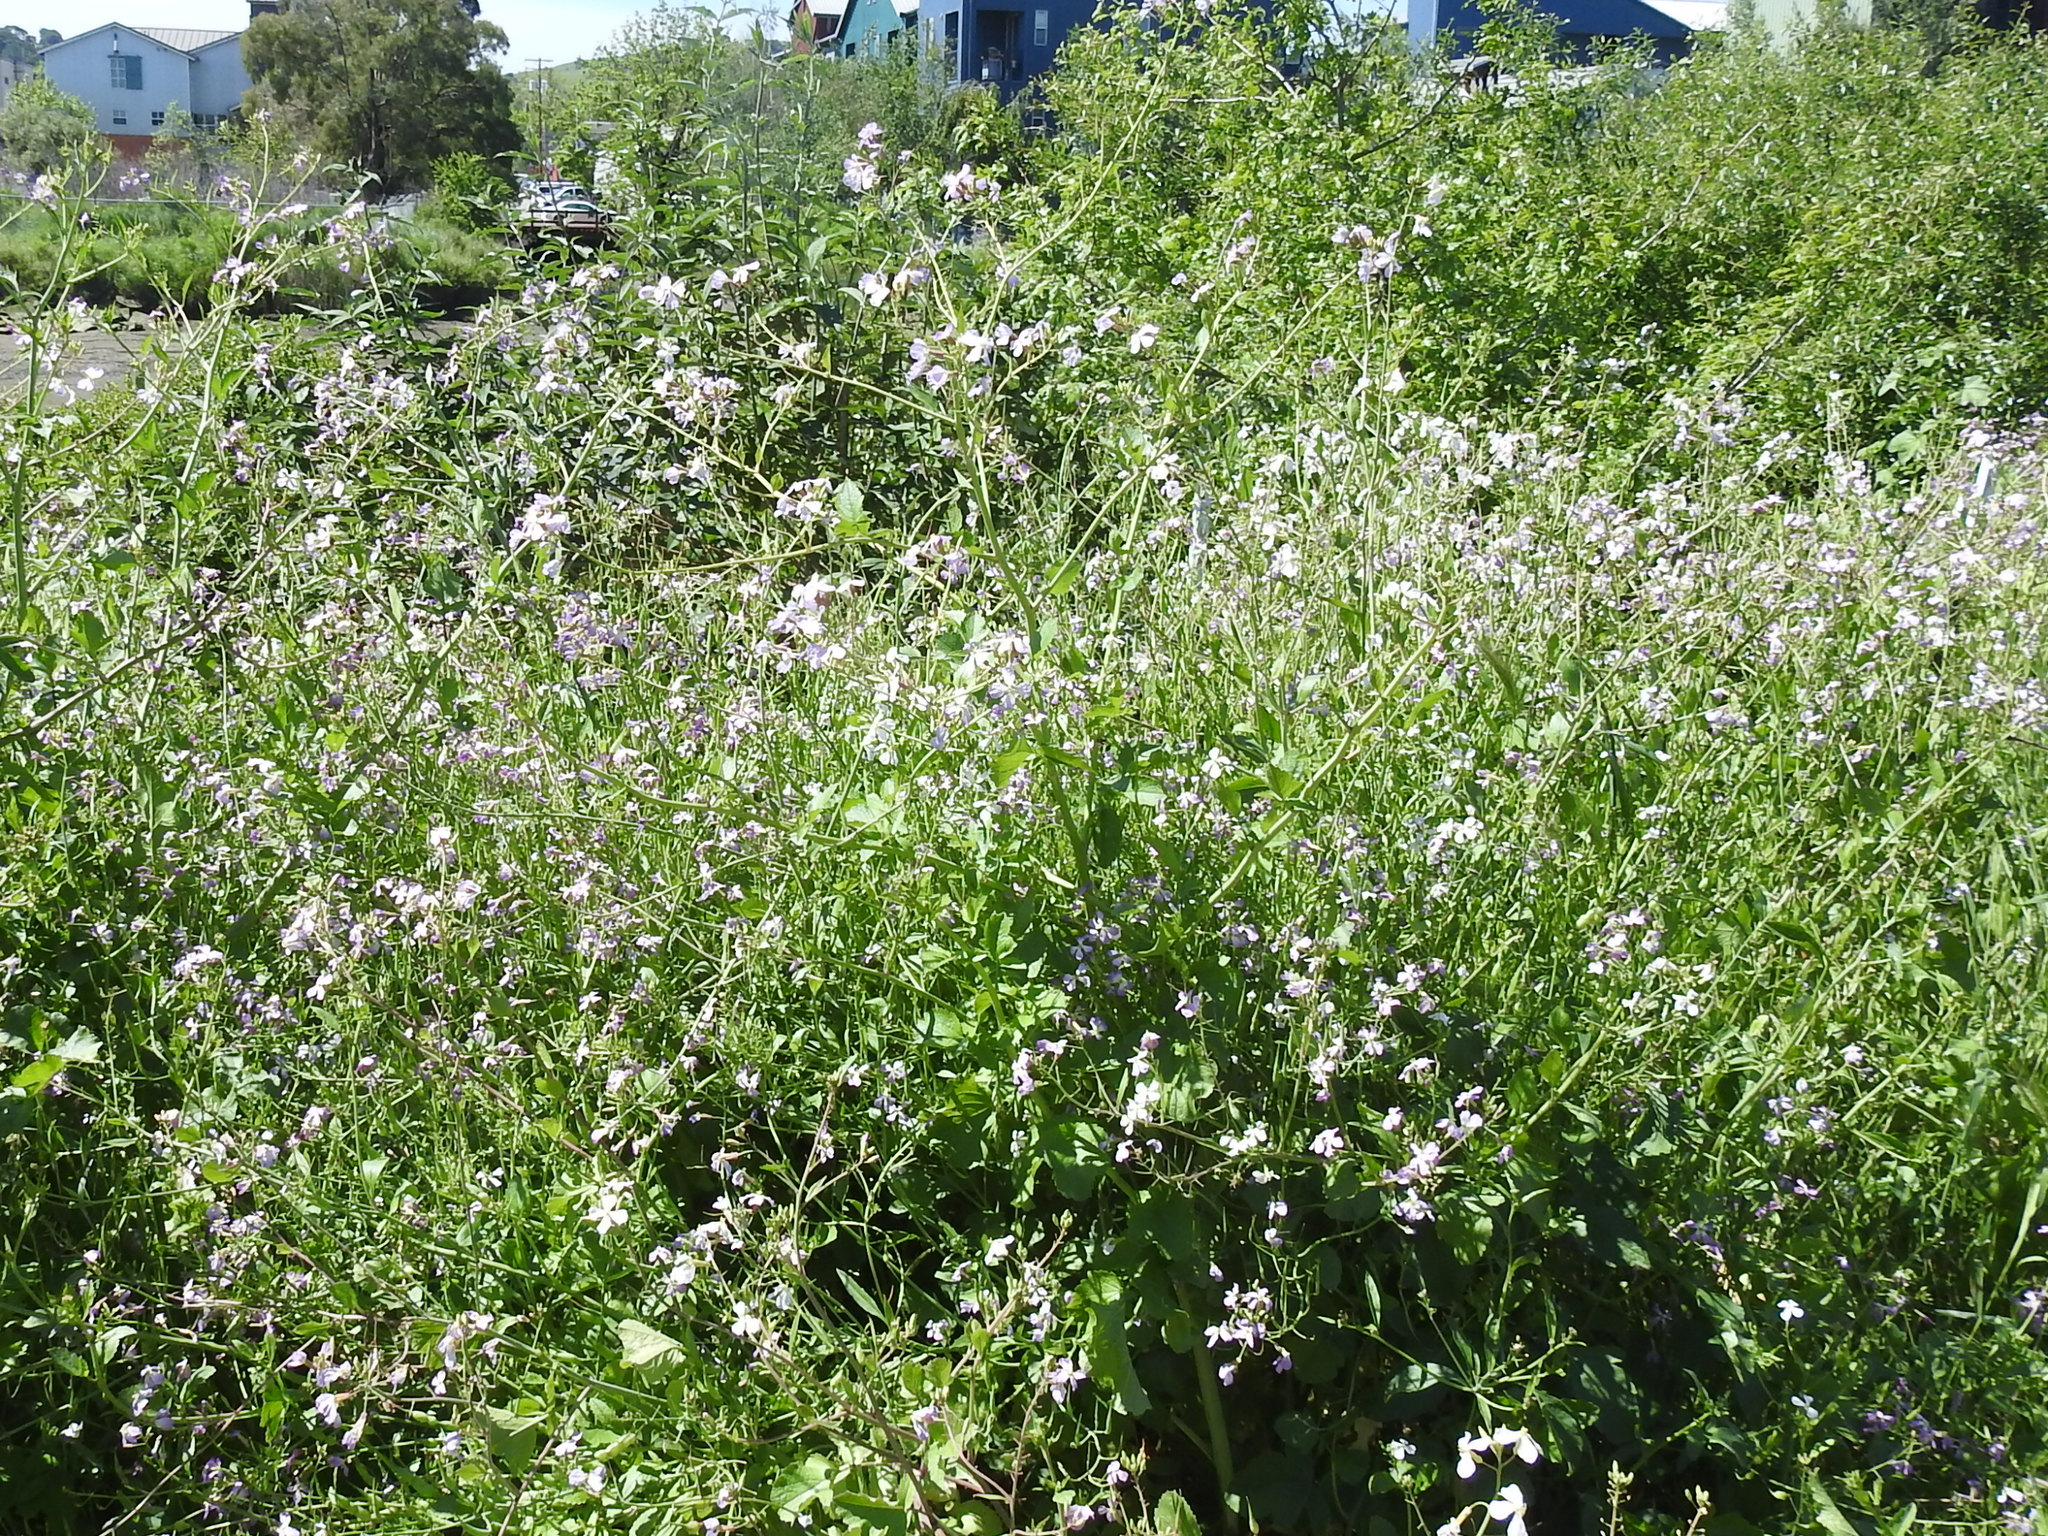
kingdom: Plantae
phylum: Tracheophyta
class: Magnoliopsida
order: Brassicales
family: Brassicaceae
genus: Raphanus
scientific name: Raphanus sativus
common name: Cultivated radish
